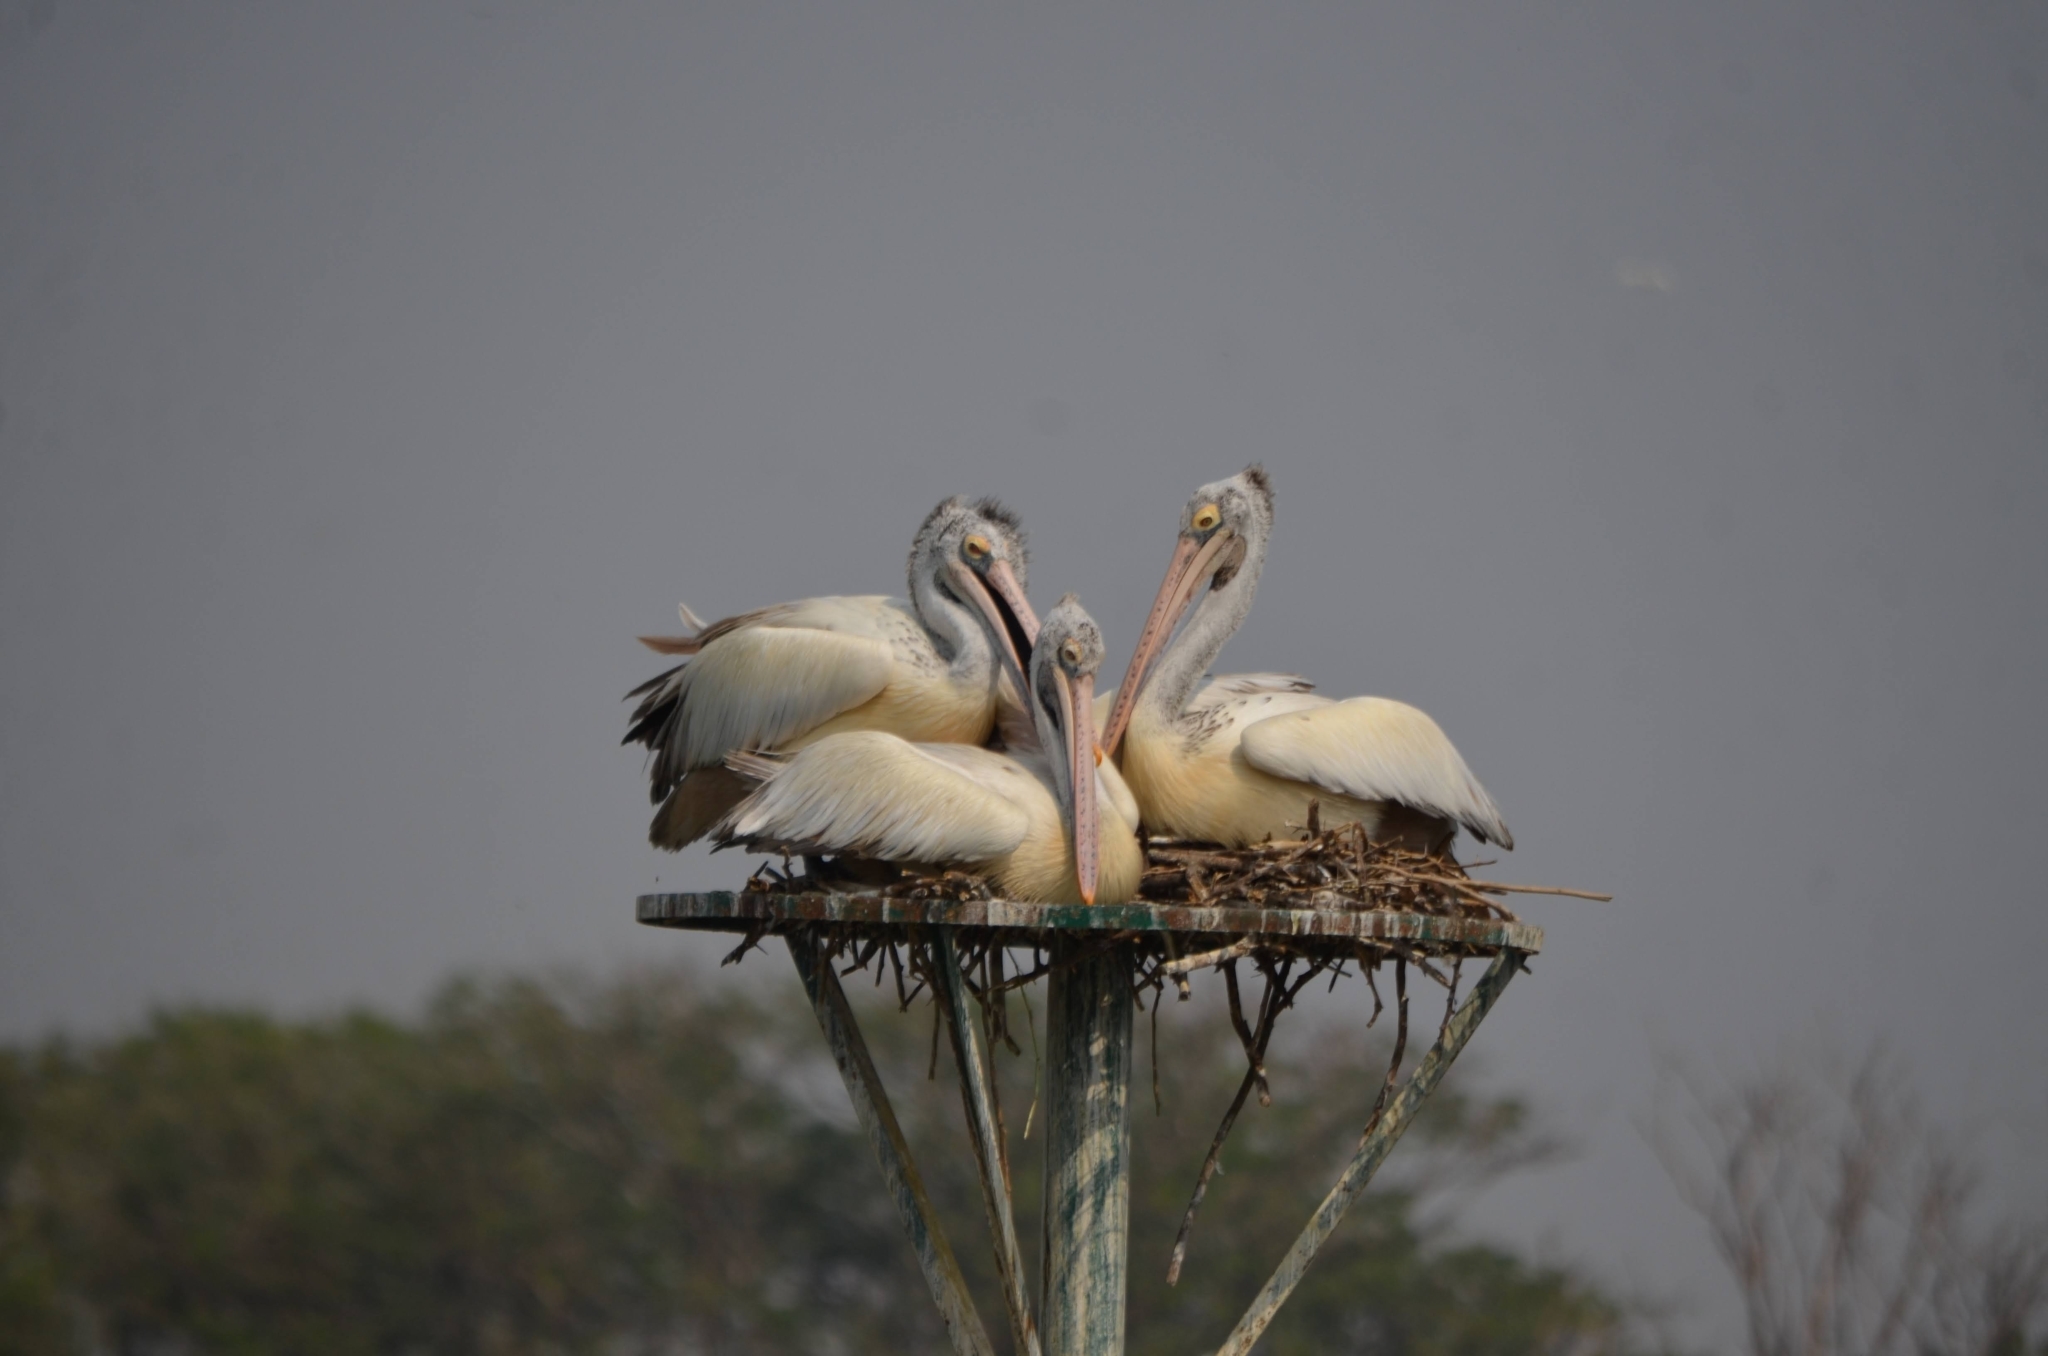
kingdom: Animalia
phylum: Chordata
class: Aves
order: Pelecaniformes
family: Pelecanidae
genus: Pelecanus
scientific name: Pelecanus philippensis
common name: Spot-billed pelican
